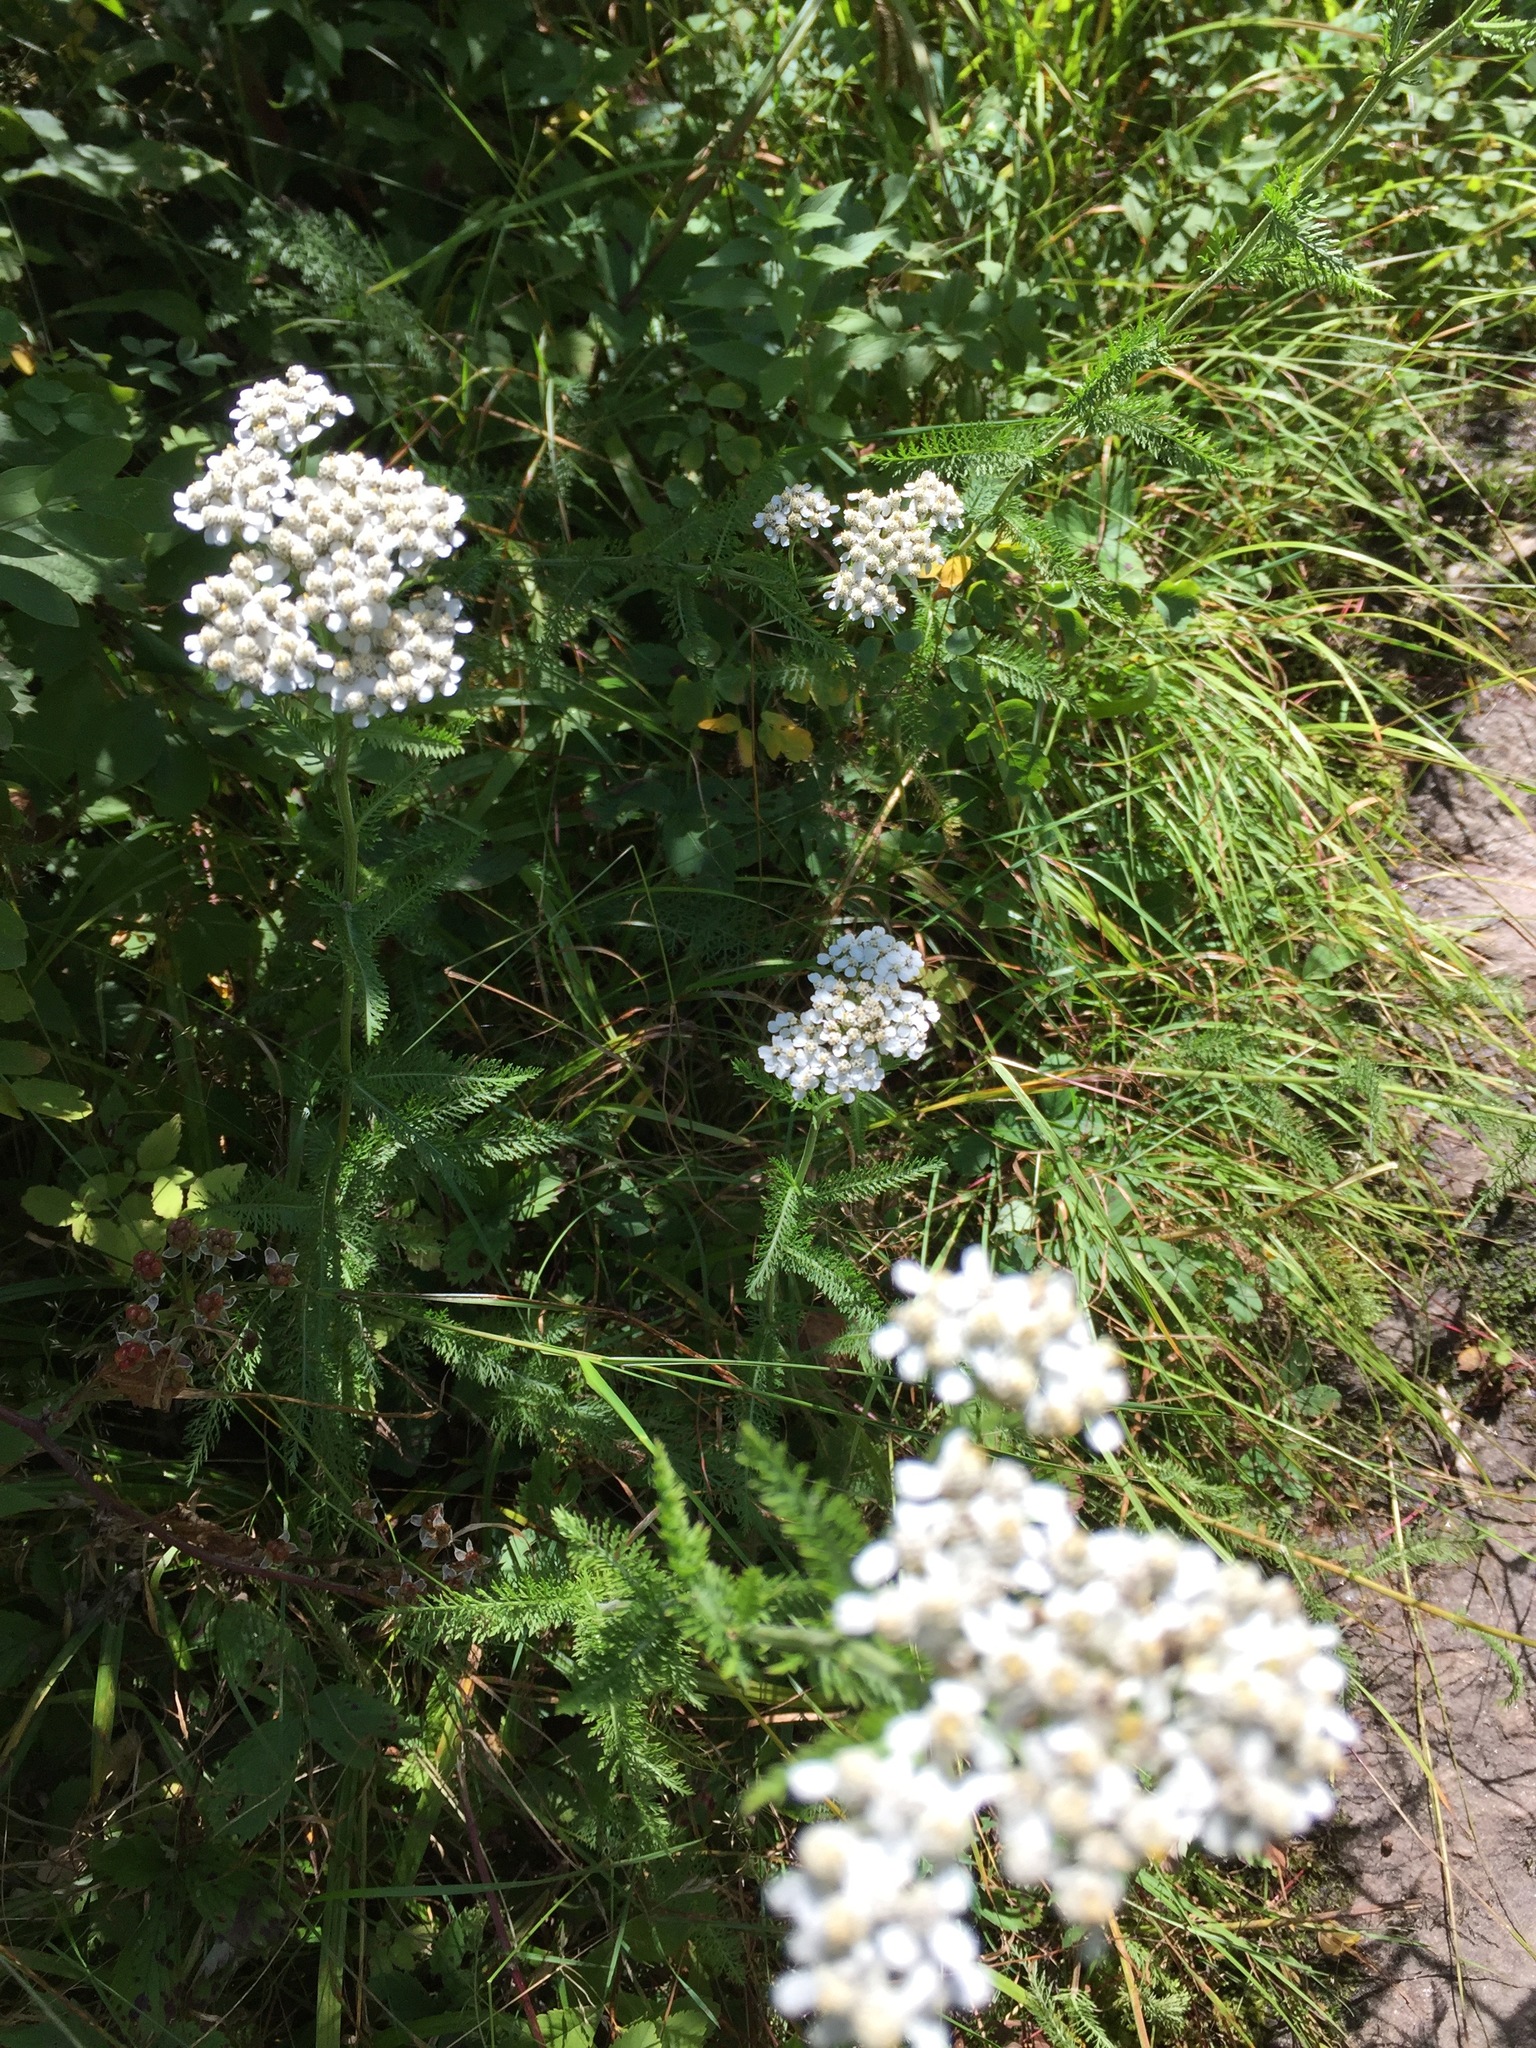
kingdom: Plantae
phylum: Tracheophyta
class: Magnoliopsida
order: Asterales
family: Asteraceae
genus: Achillea
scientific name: Achillea millefolium
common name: Yarrow
